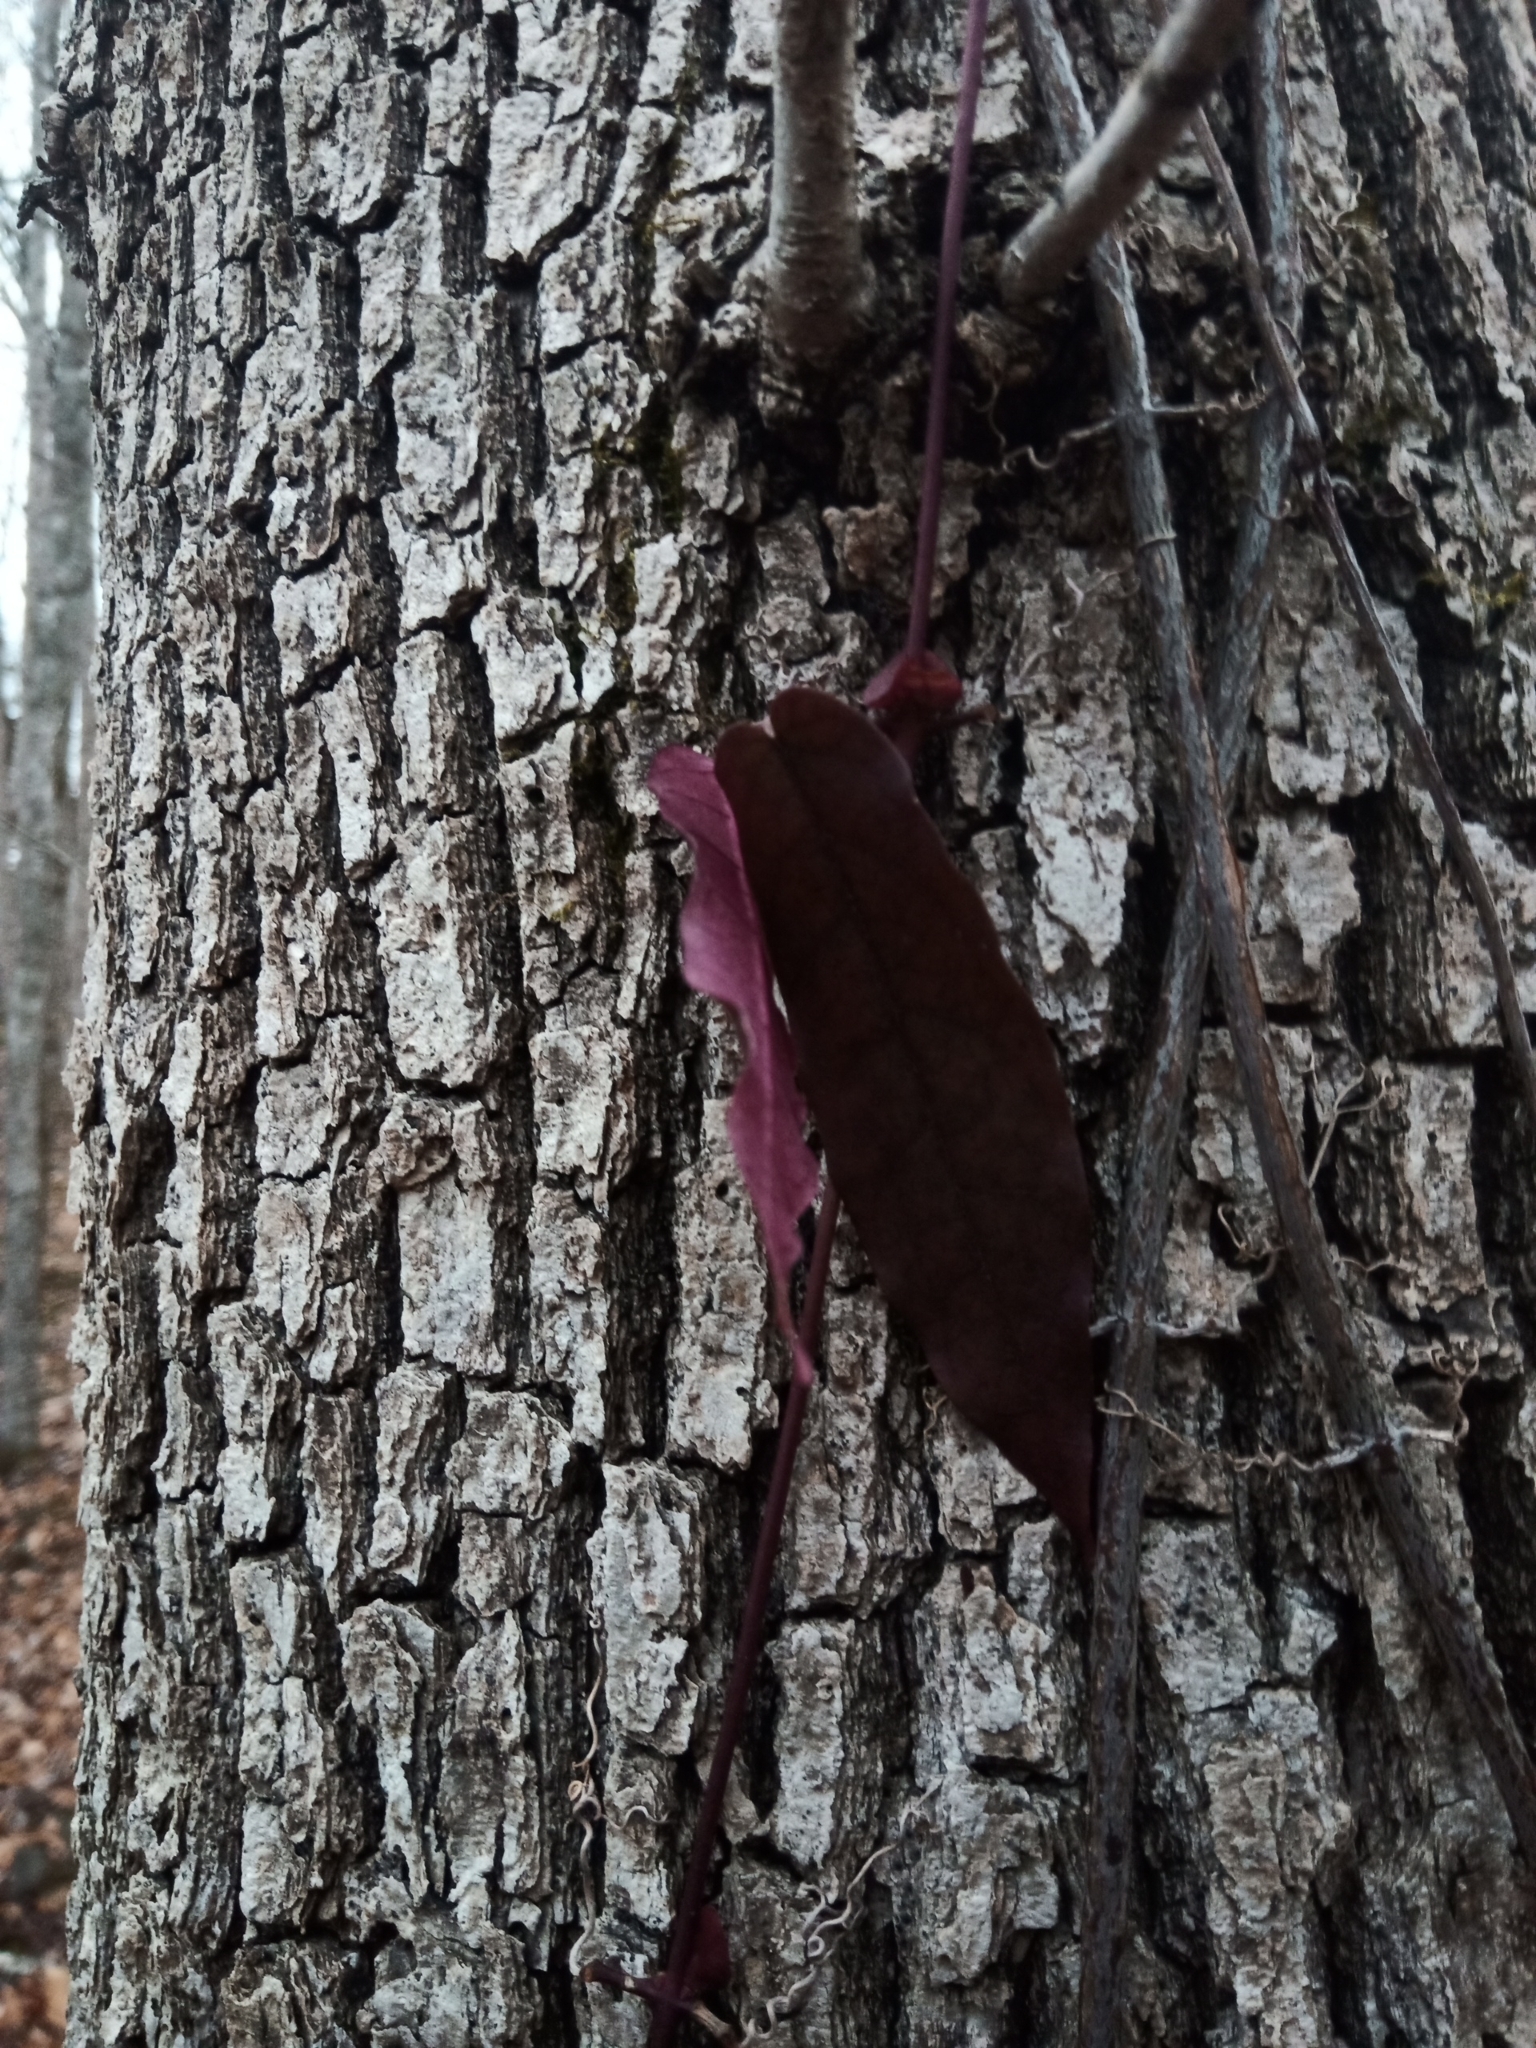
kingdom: Plantae
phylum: Tracheophyta
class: Magnoliopsida
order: Lamiales
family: Bignoniaceae
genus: Bignonia
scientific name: Bignonia capreolata
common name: Crossvine
